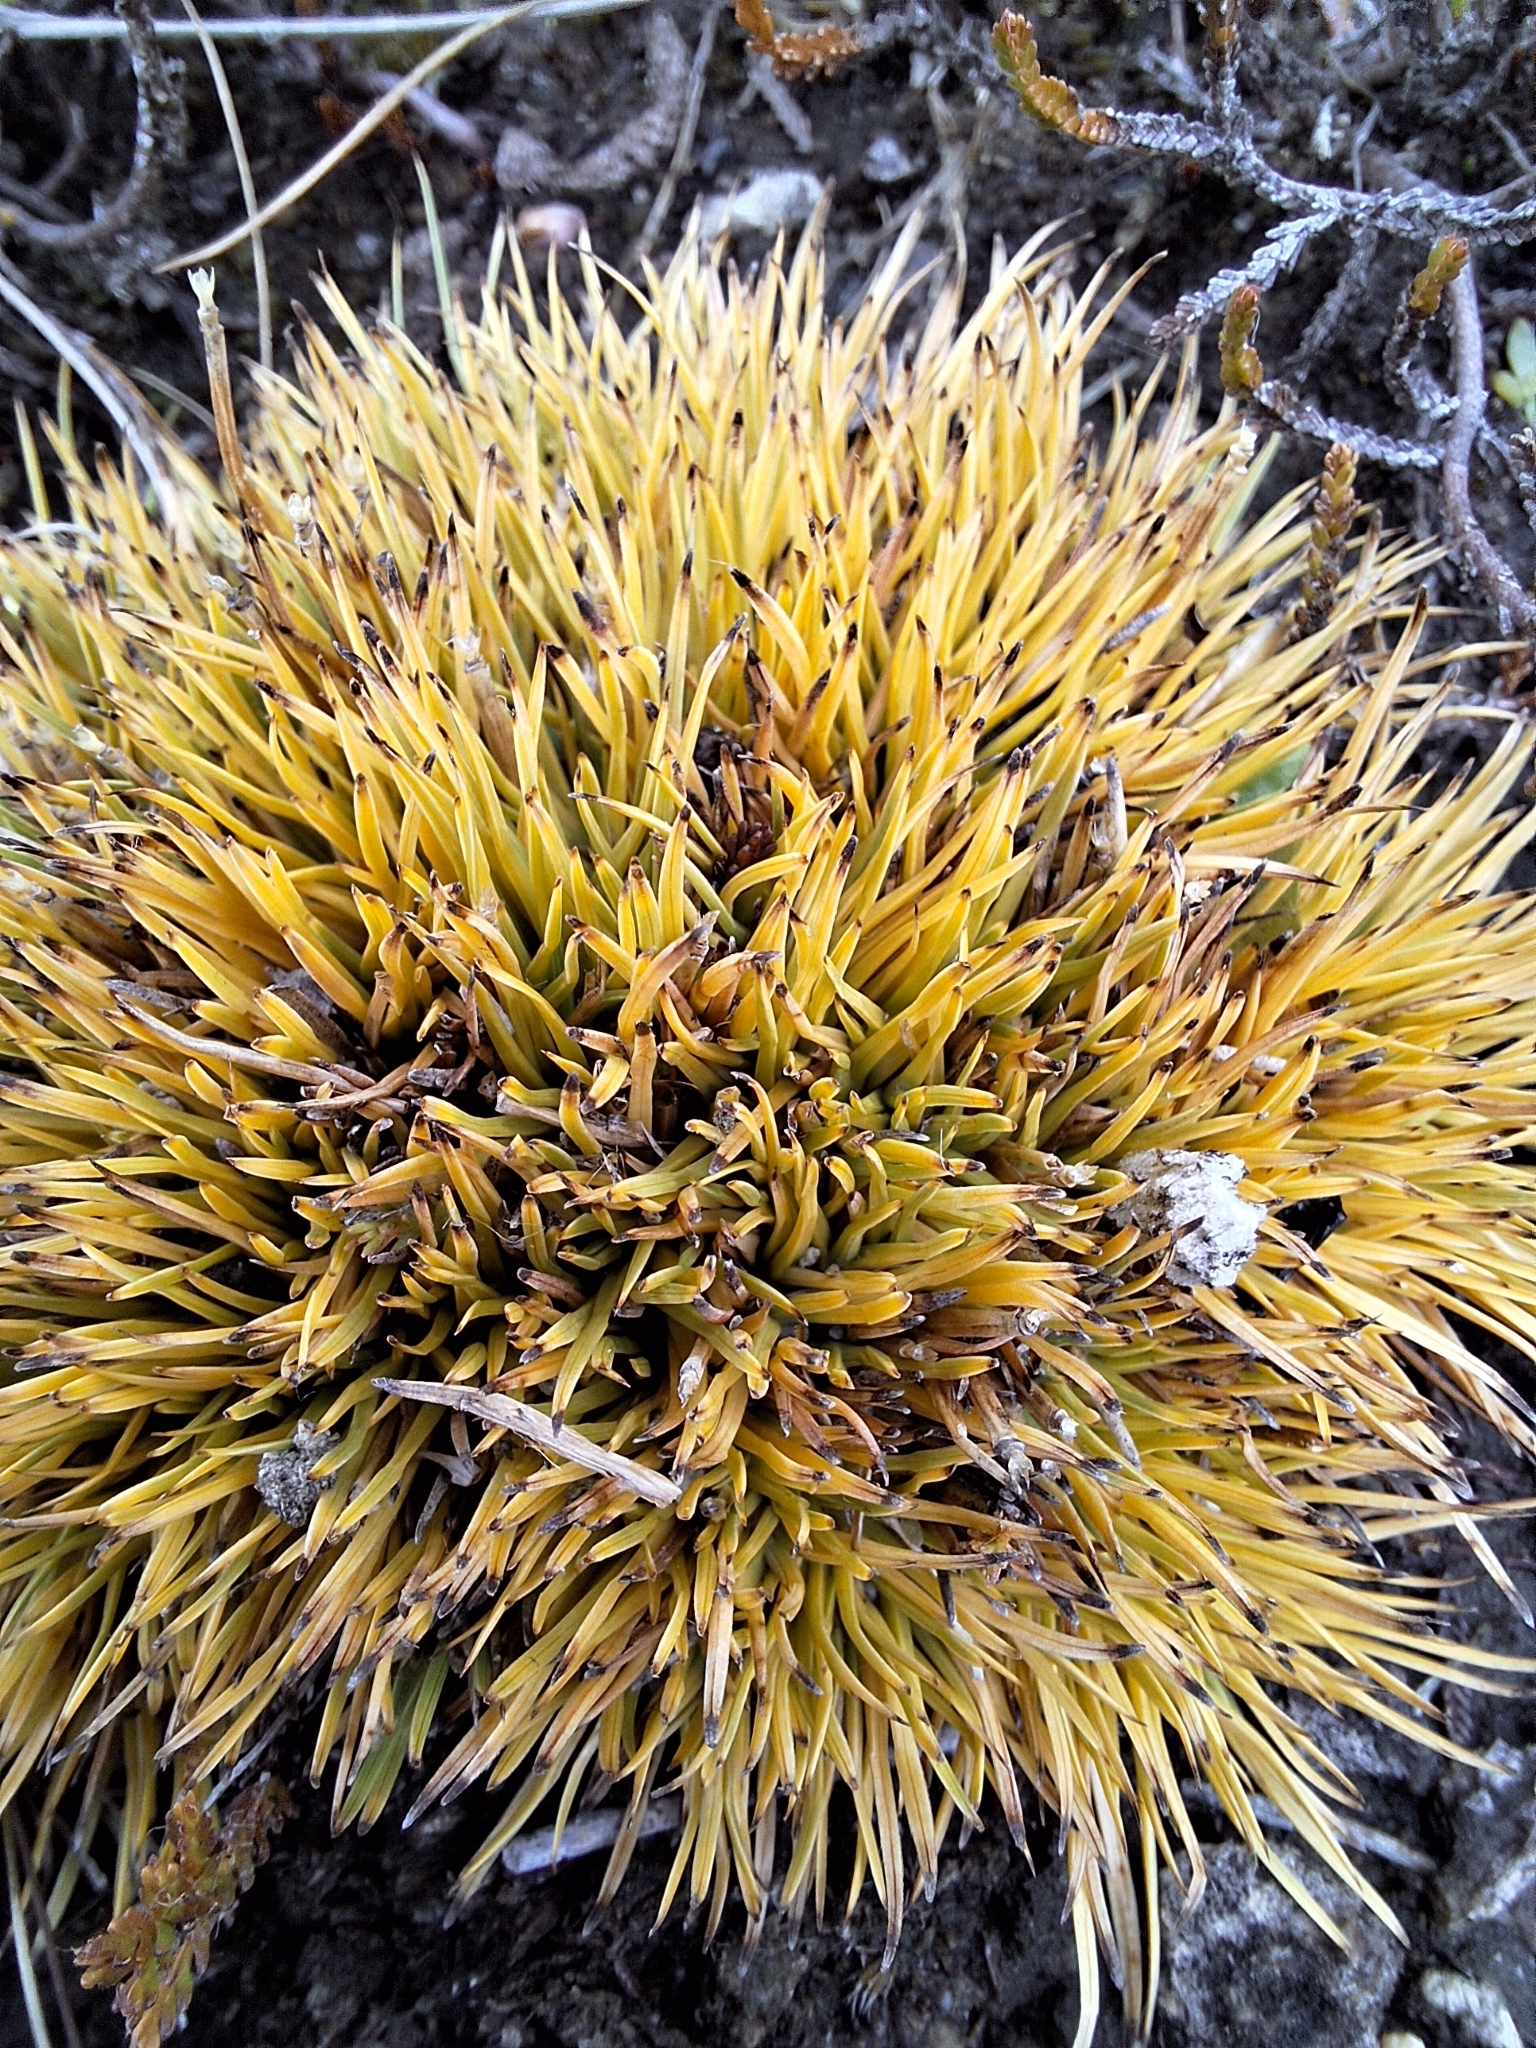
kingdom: Plantae
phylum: Tracheophyta
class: Liliopsida
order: Poales
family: Cyperaceae
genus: Oreobolus
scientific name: Oreobolus pectinatus
